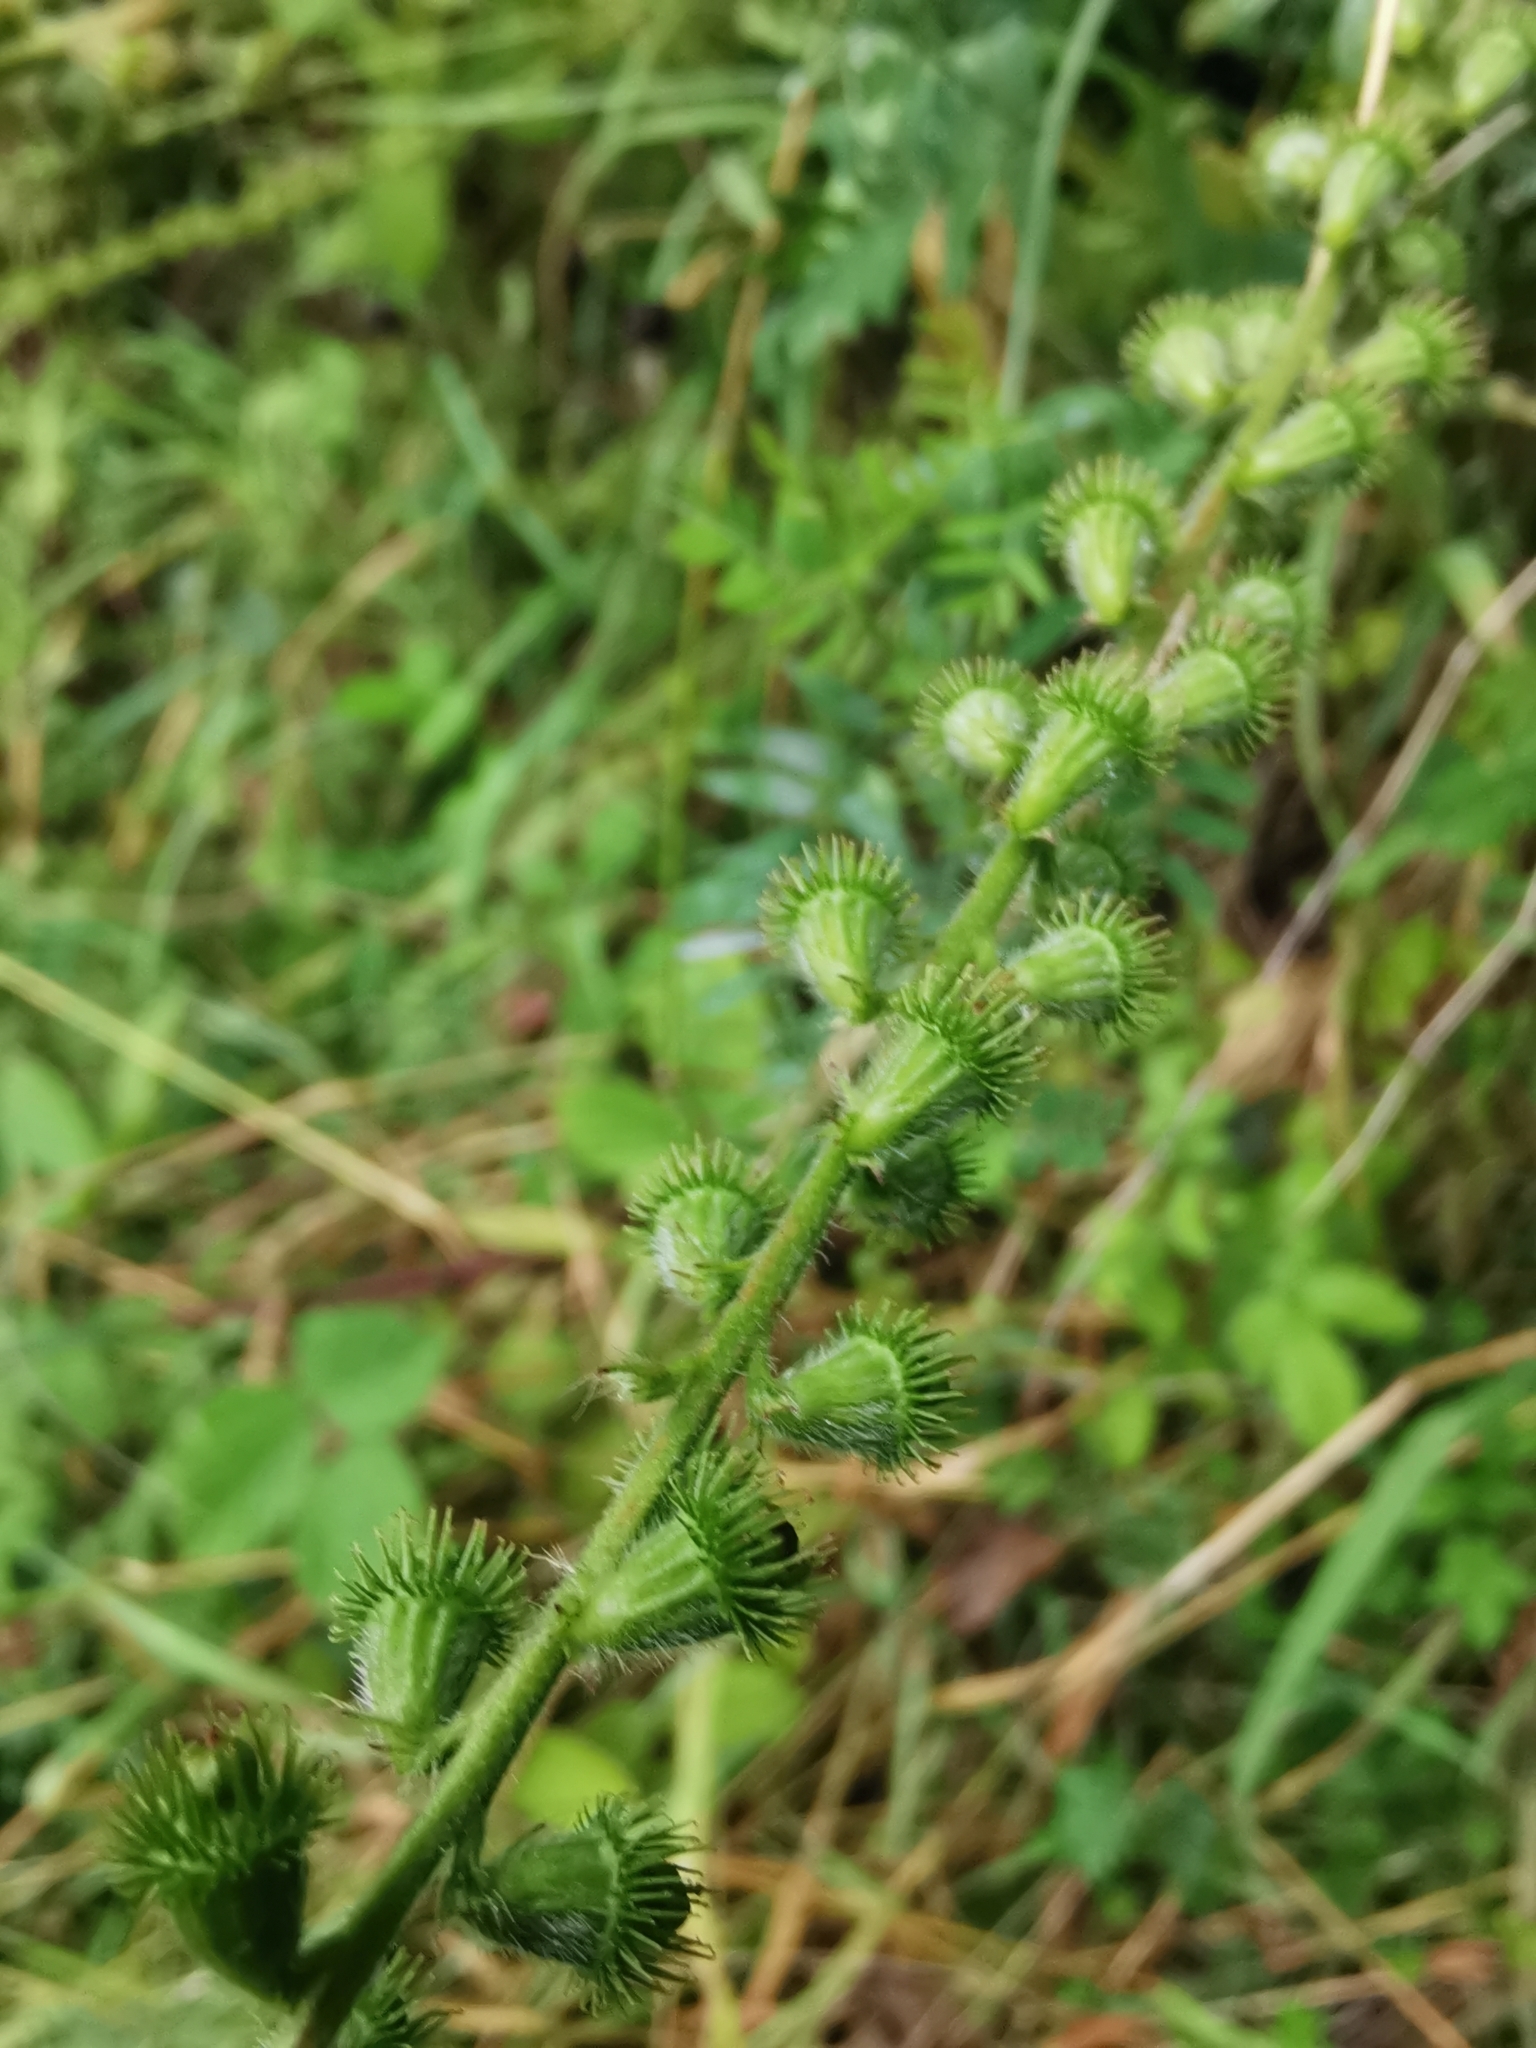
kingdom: Plantae
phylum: Tracheophyta
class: Magnoliopsida
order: Rosales
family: Rosaceae
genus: Agrimonia
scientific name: Agrimonia eupatoria
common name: Agrimony
